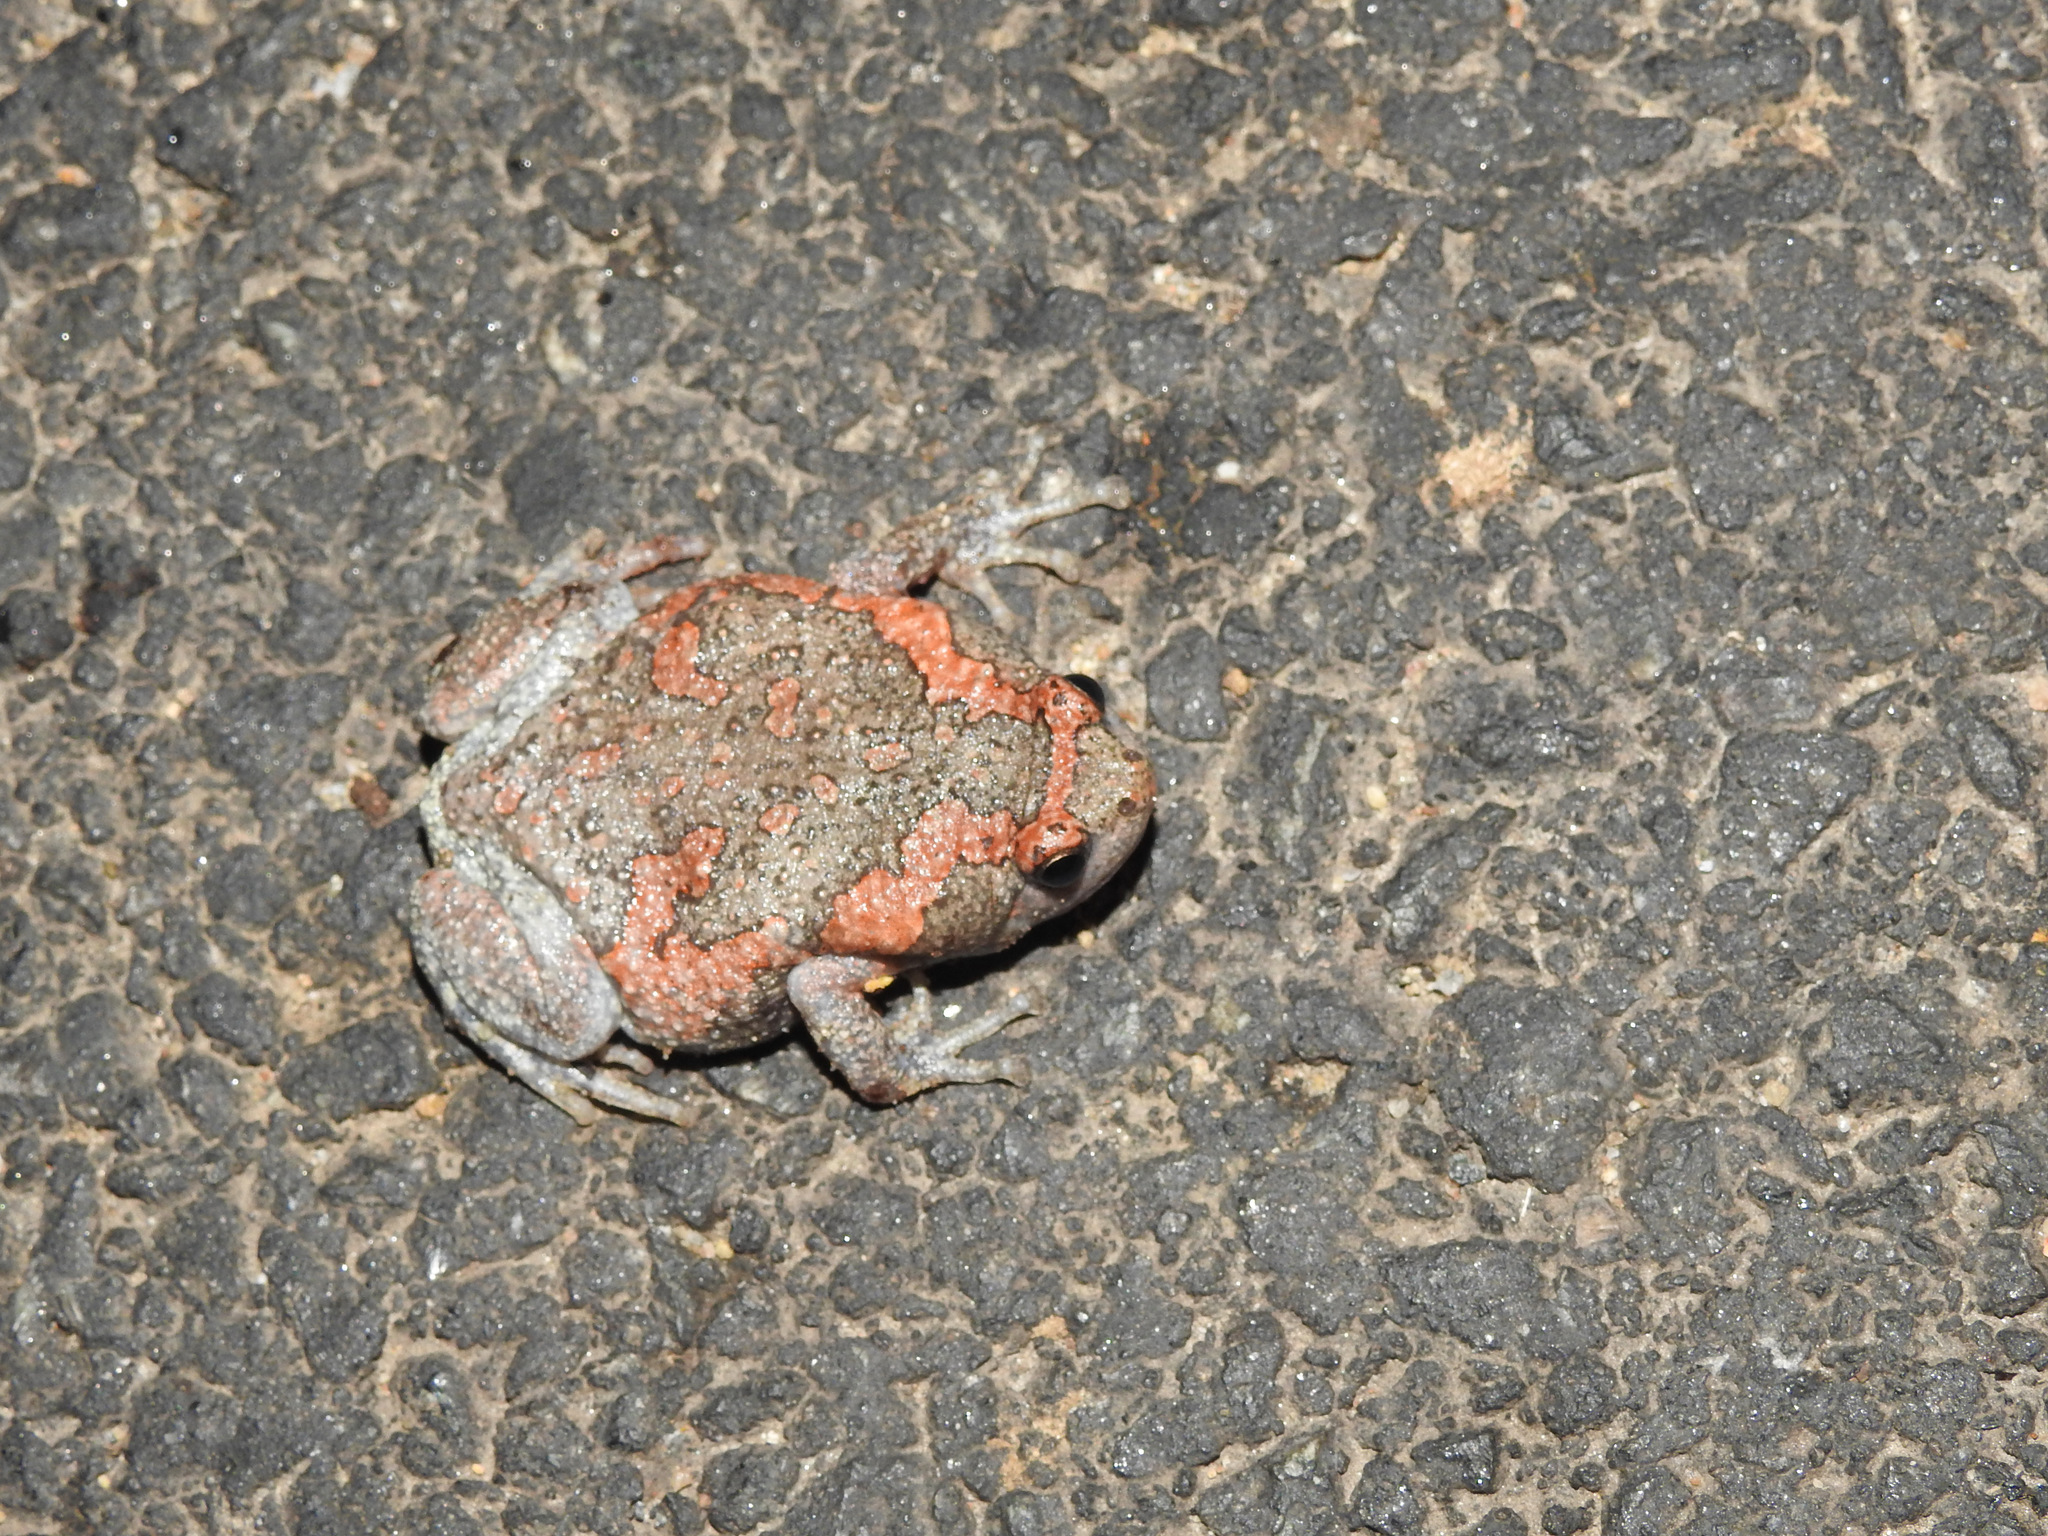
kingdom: Animalia
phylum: Chordata
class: Amphibia
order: Anura
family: Microhylidae
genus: Uperodon
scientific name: Uperodon taprobanicus
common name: Ceylon kaloula
